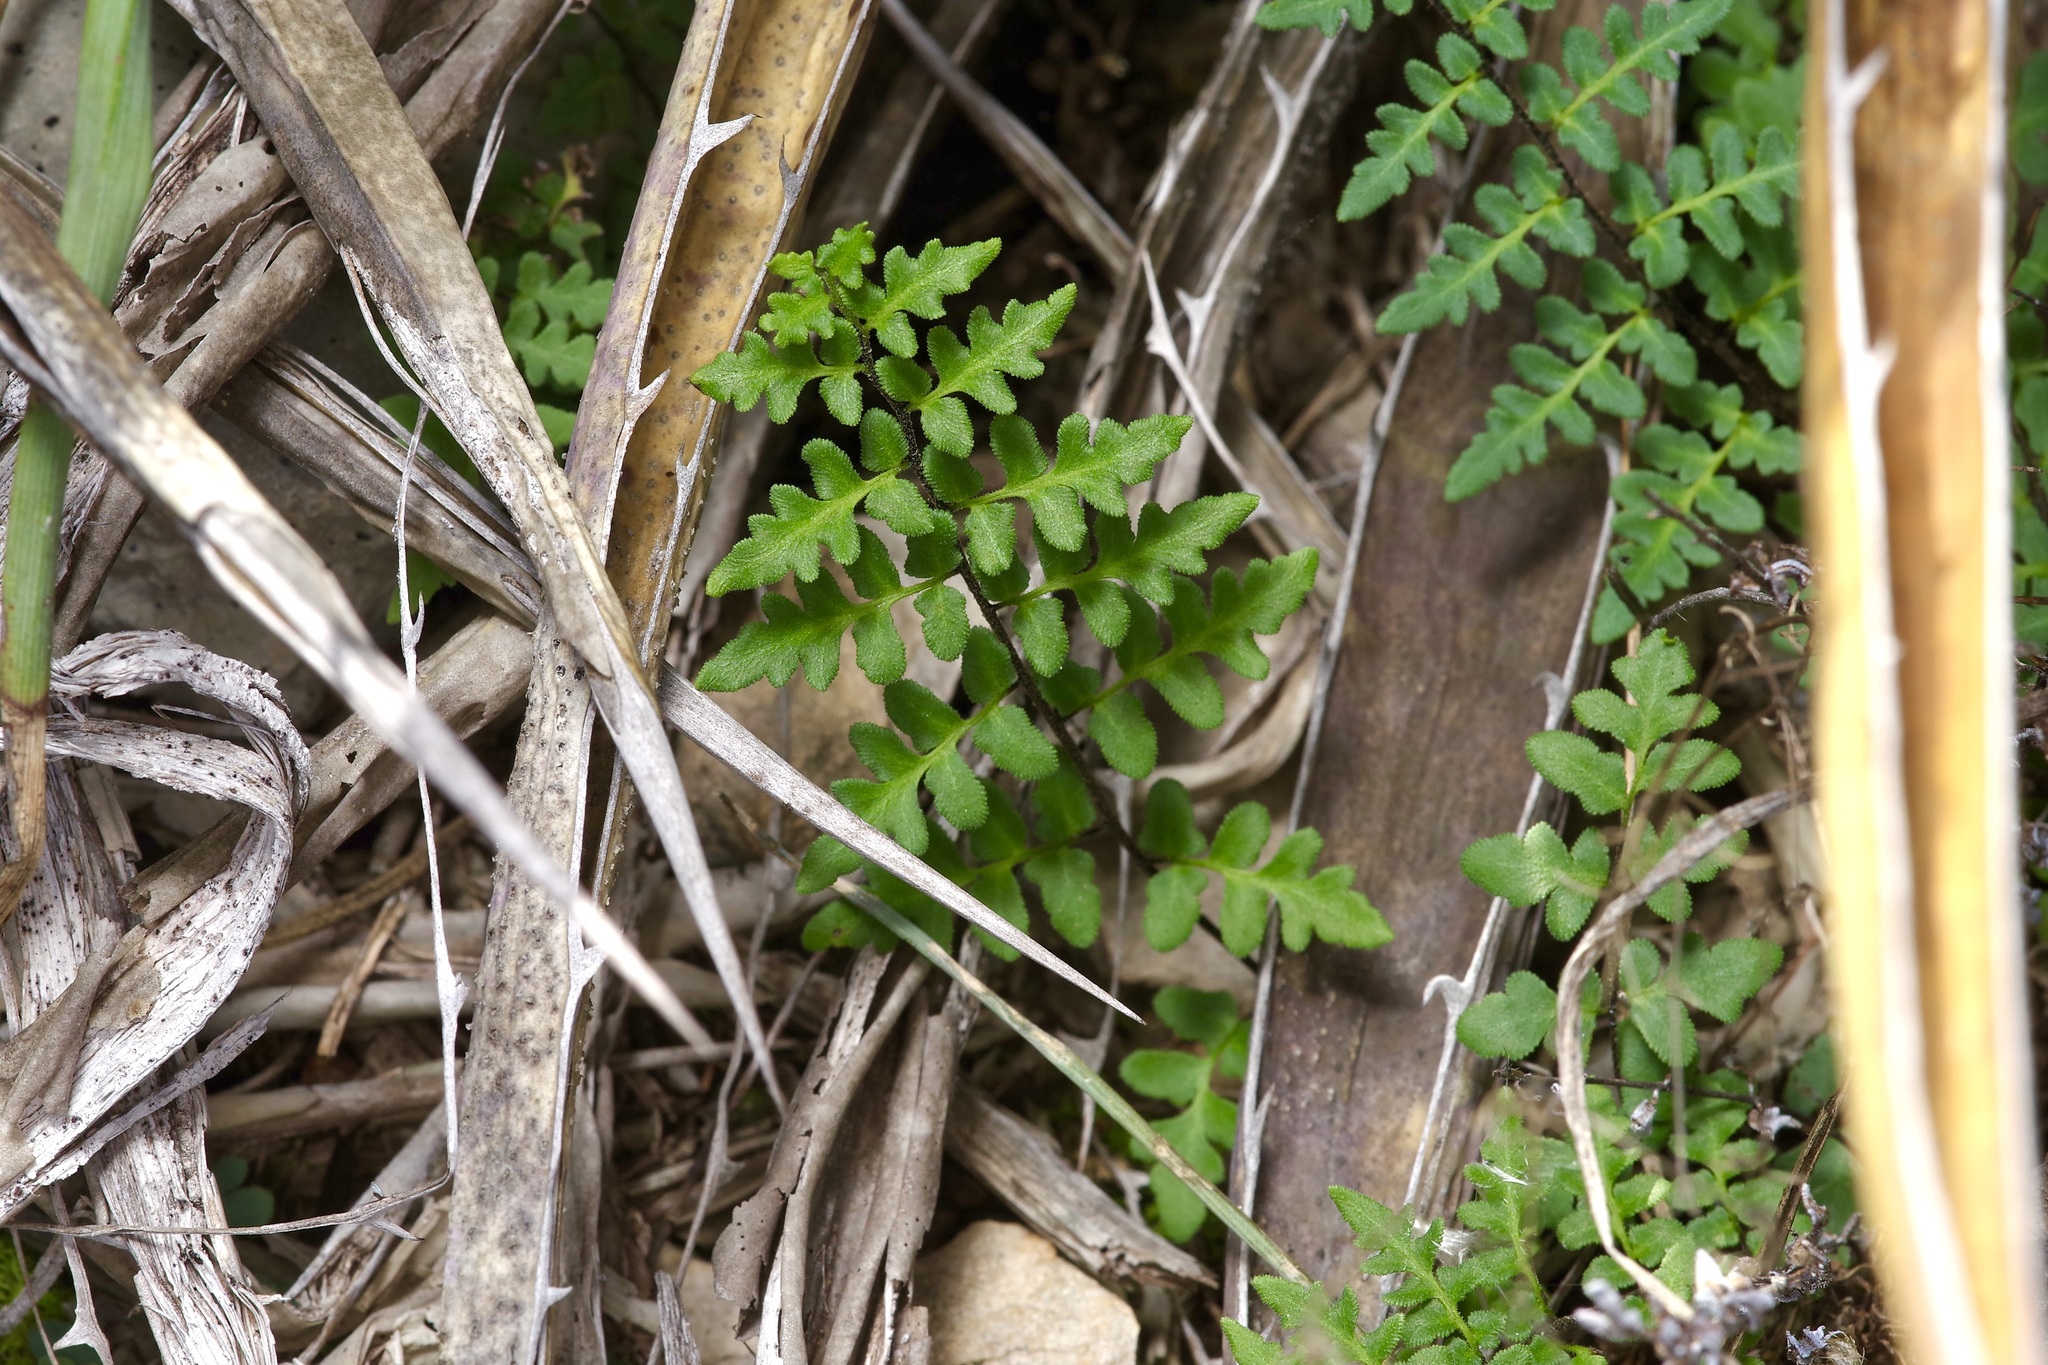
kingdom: Plantae
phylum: Tracheophyta
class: Polypodiopsida
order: Polypodiales
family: Pteridaceae
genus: Myriopteris
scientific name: Myriopteris scabra
